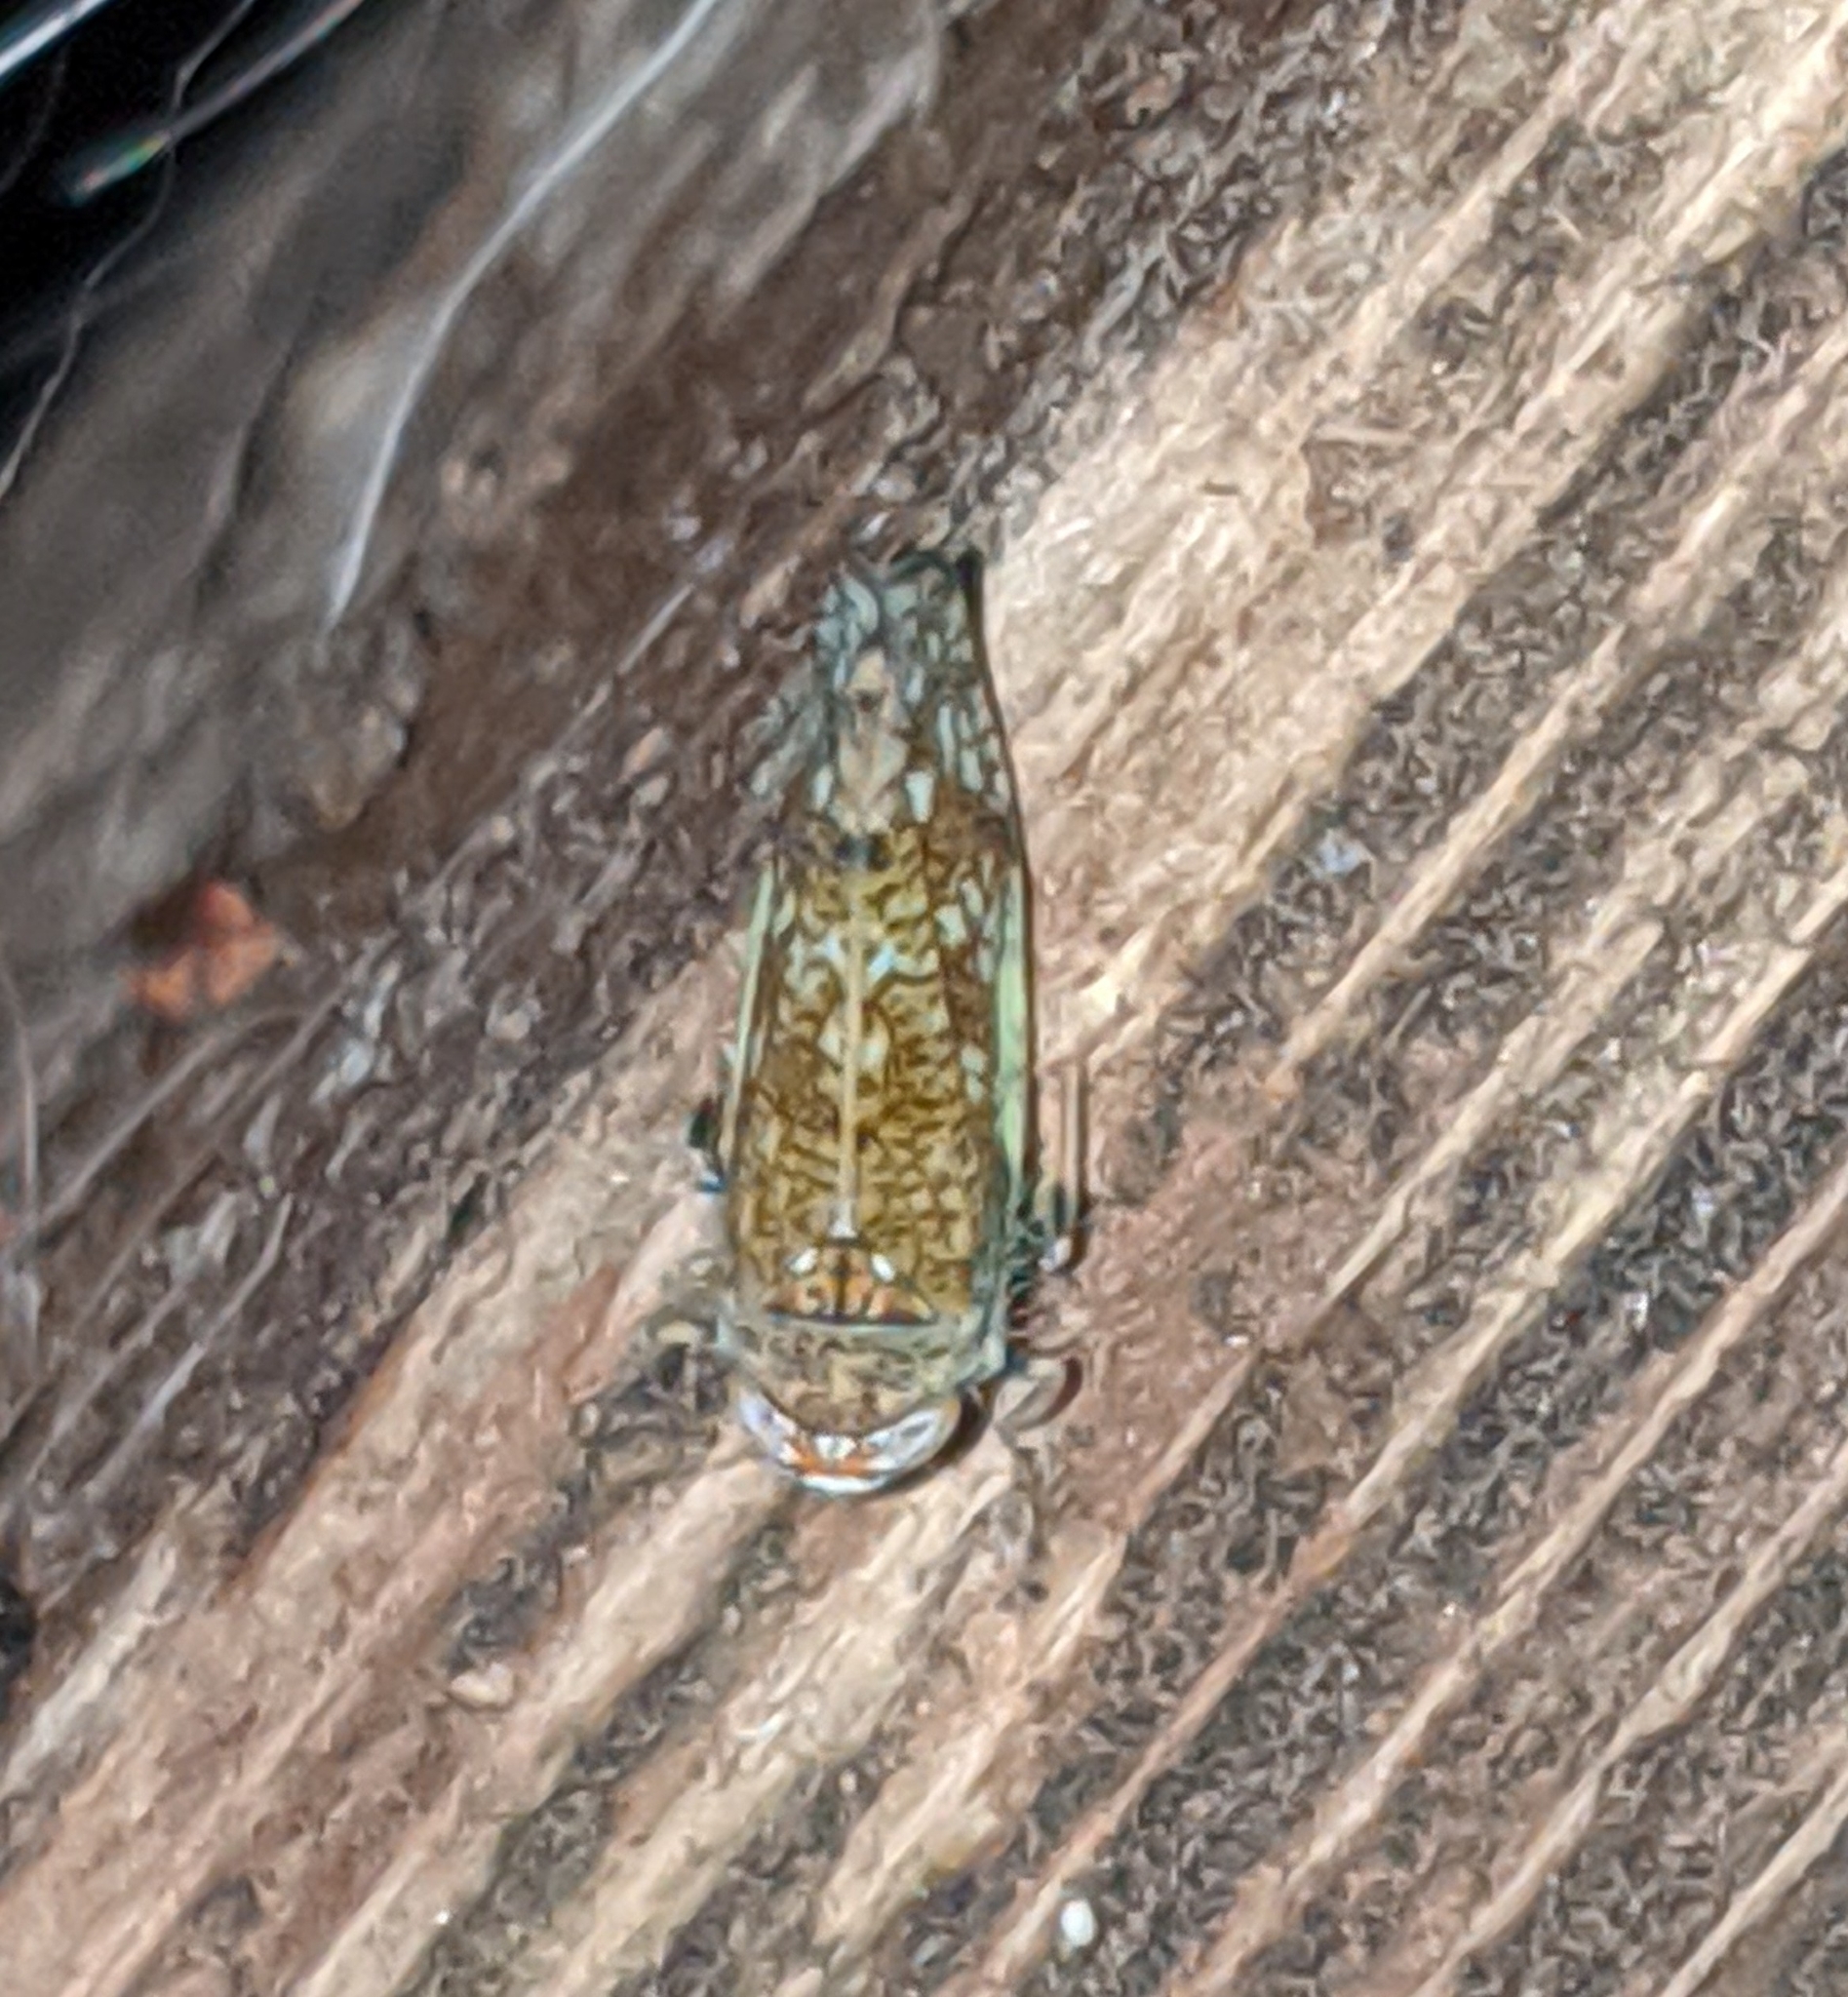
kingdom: Animalia
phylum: Arthropoda
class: Insecta
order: Hemiptera
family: Cicadellidae
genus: Orientus
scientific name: Orientus ishidae
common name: Japanese leafhopper
